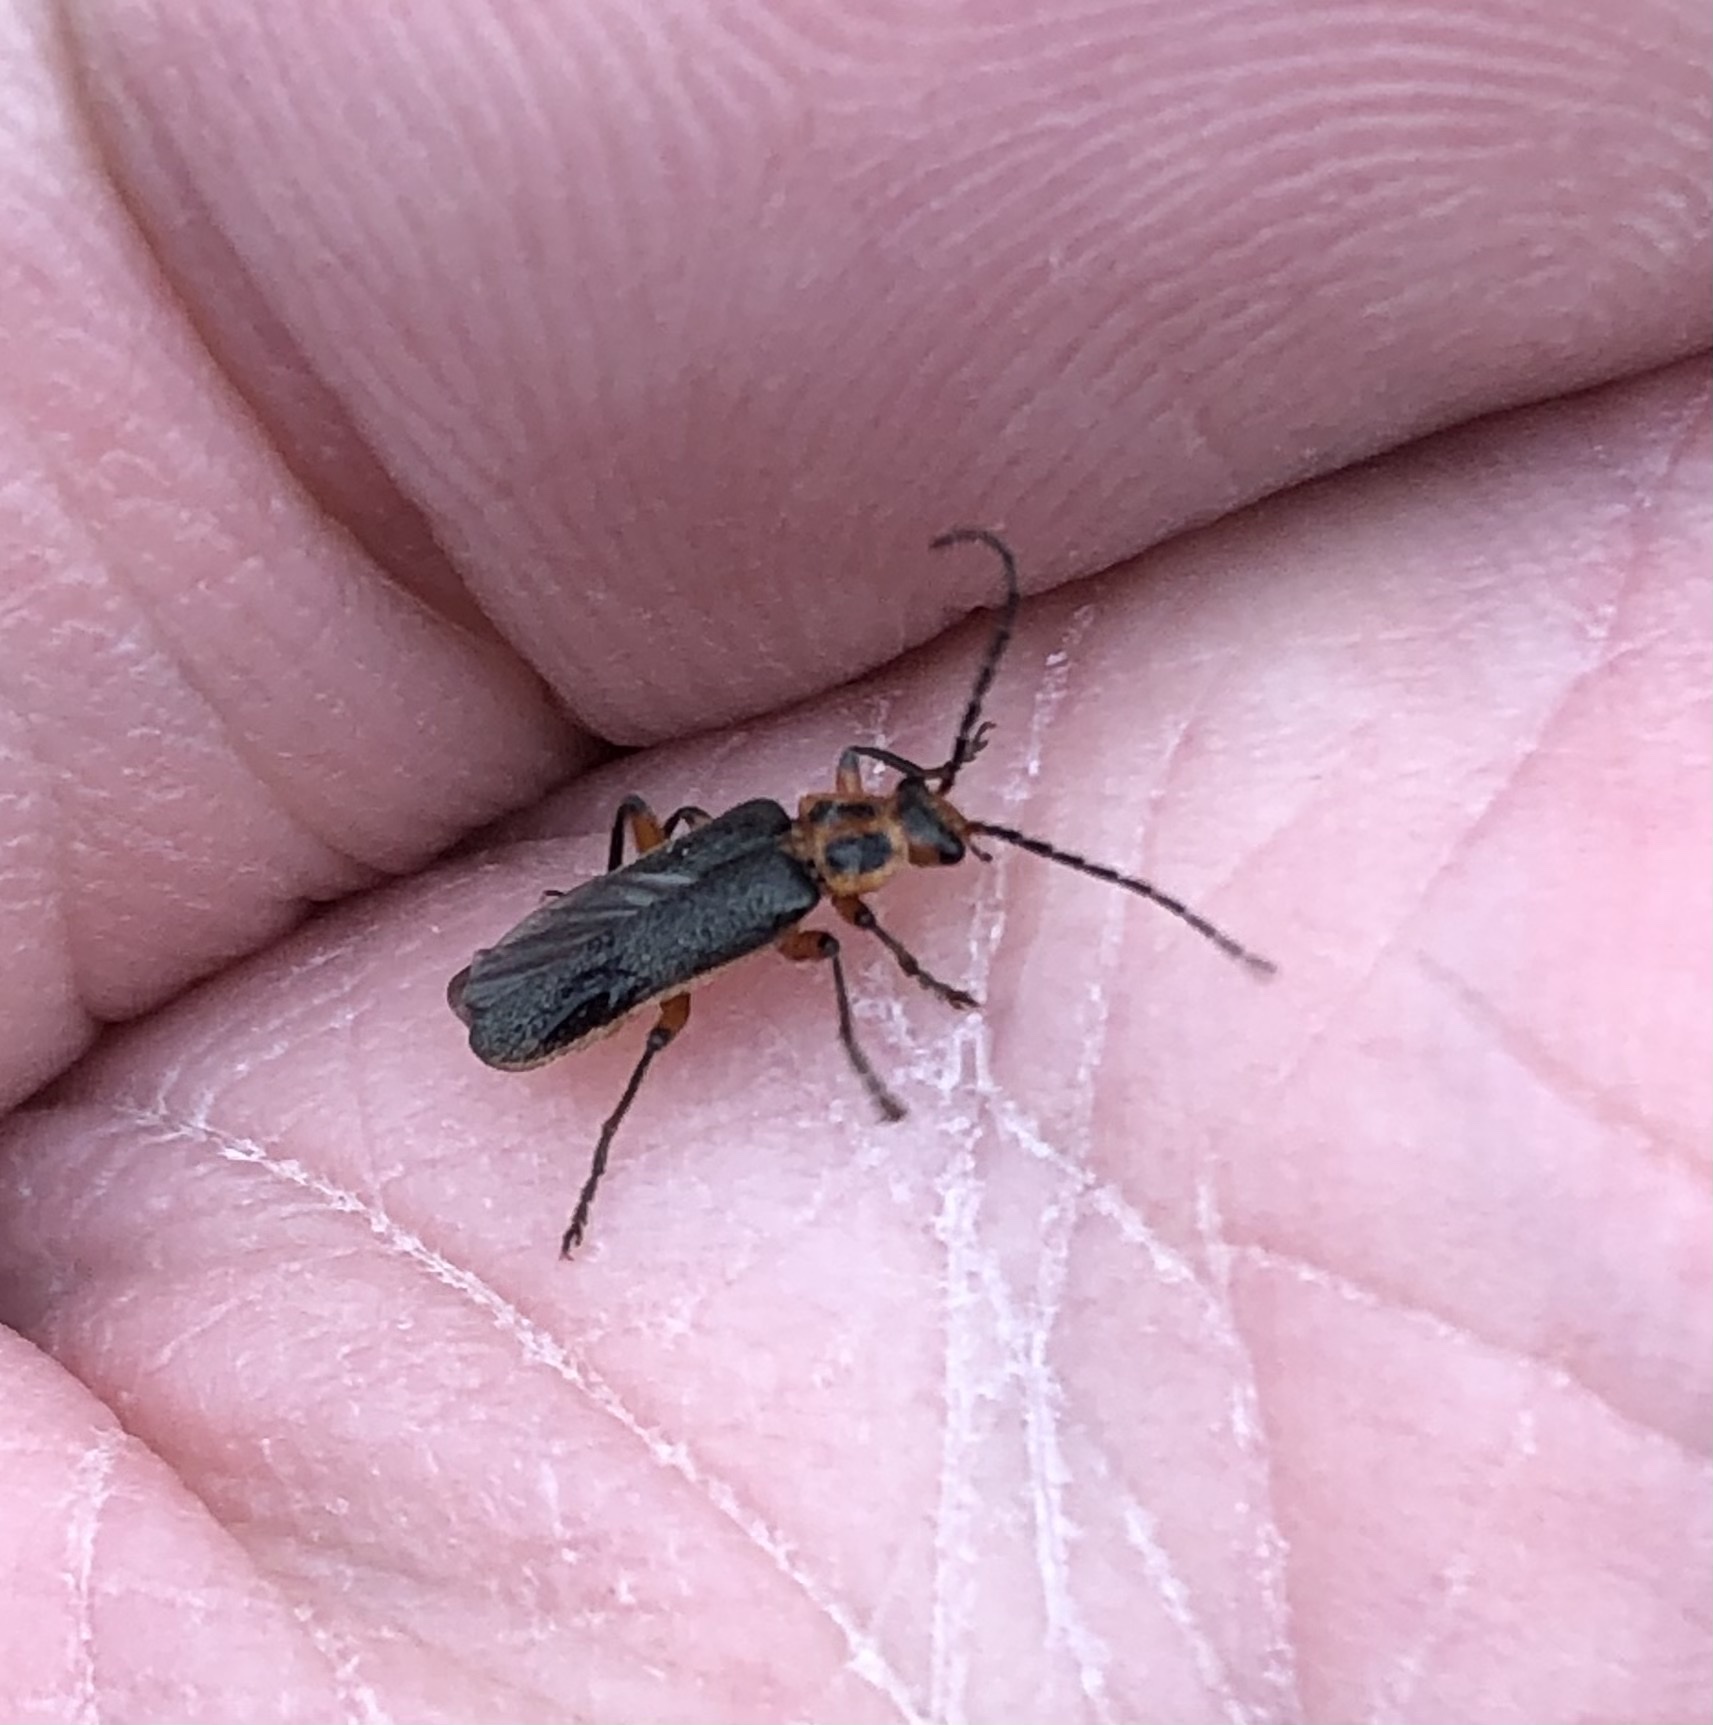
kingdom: Animalia
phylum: Arthropoda
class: Insecta
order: Coleoptera
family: Cantharidae
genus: Atalantycha
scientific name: Atalantycha bilineata
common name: Two-lined leatherwing
